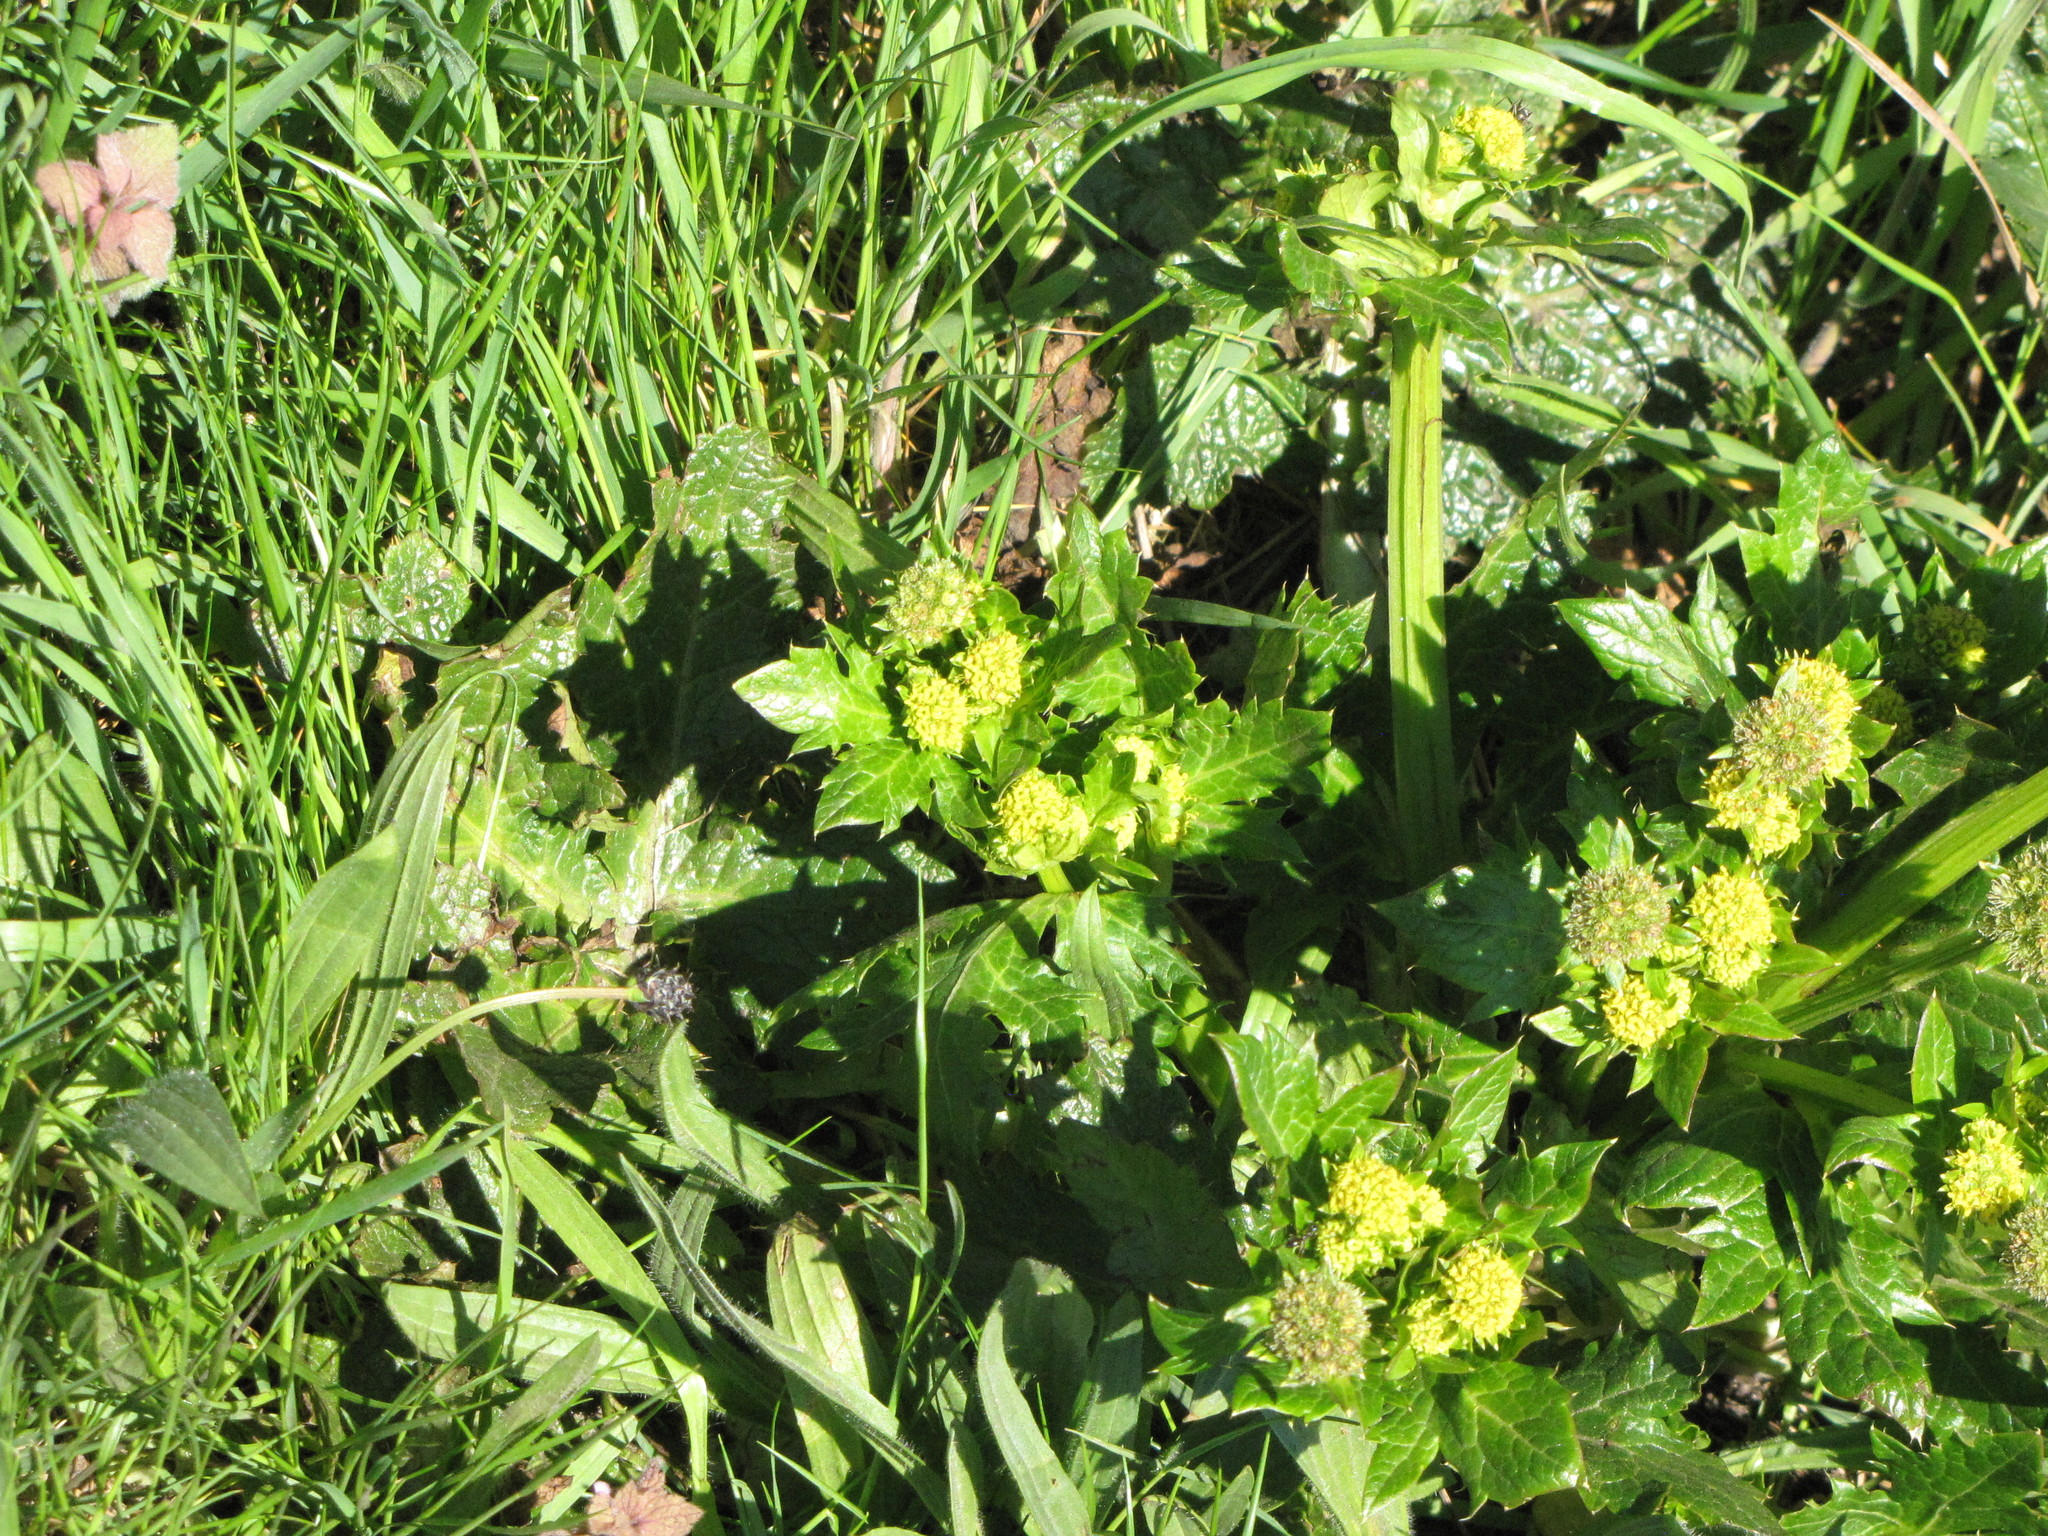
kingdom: Plantae
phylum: Tracheophyta
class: Magnoliopsida
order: Apiales
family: Apiaceae
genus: Sanicula
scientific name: Sanicula crassicaulis
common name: Western snakeroot
